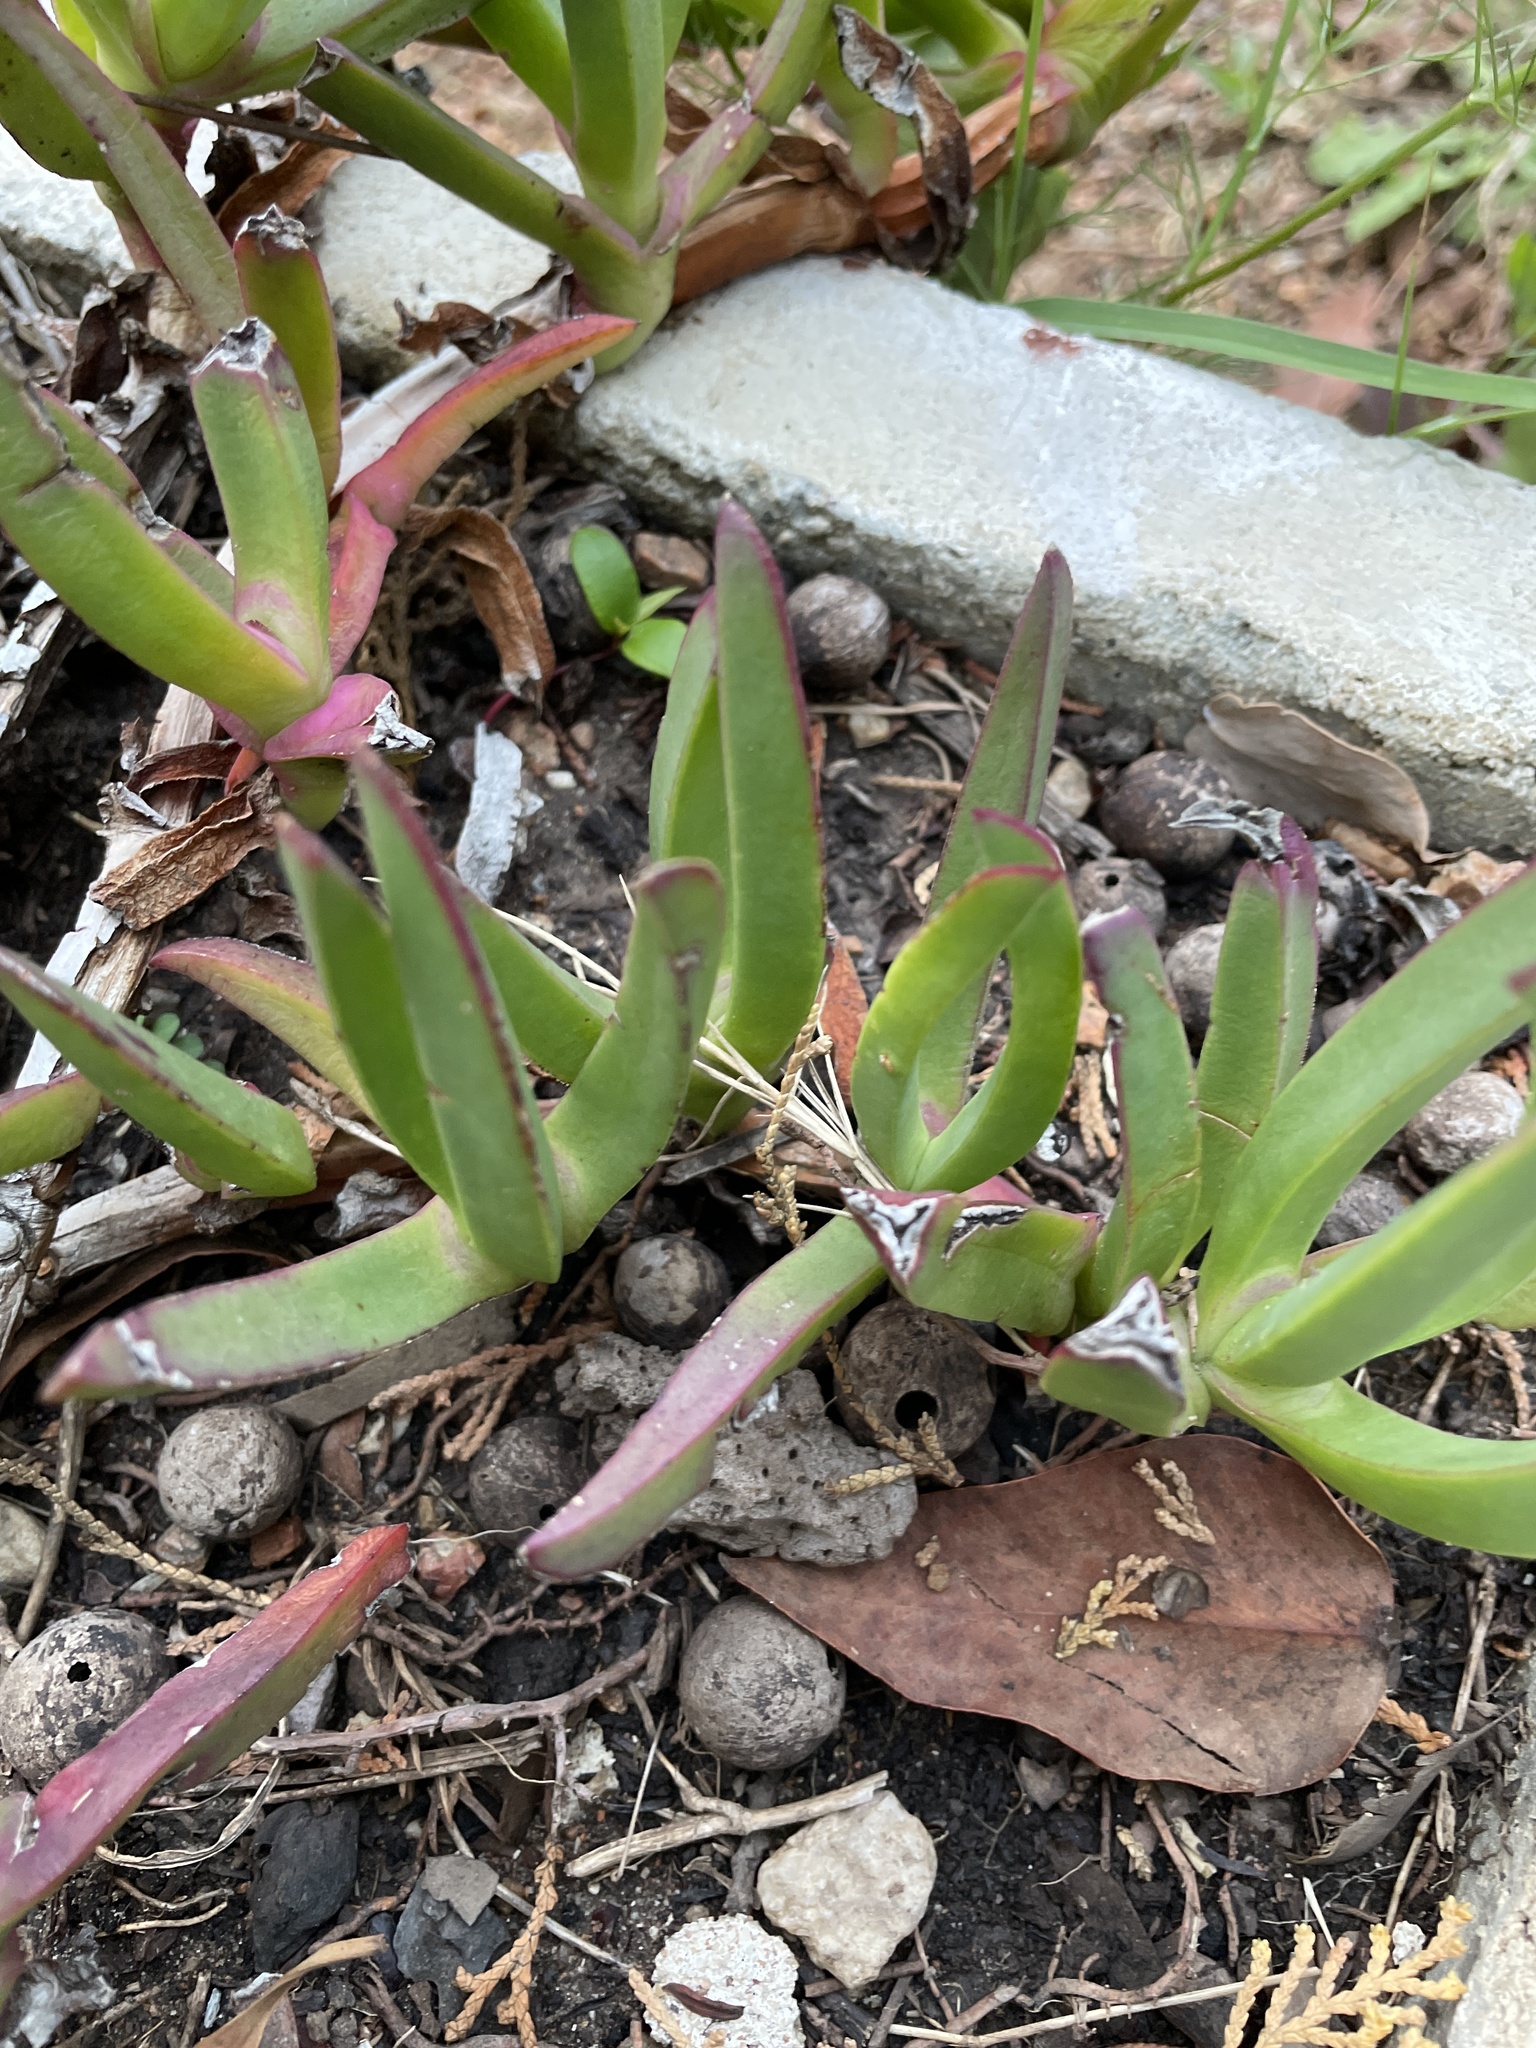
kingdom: Plantae
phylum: Tracheophyta
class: Magnoliopsida
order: Caryophyllales
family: Aizoaceae
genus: Carpobrotus
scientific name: Carpobrotus edulis
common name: Hottentot-fig
